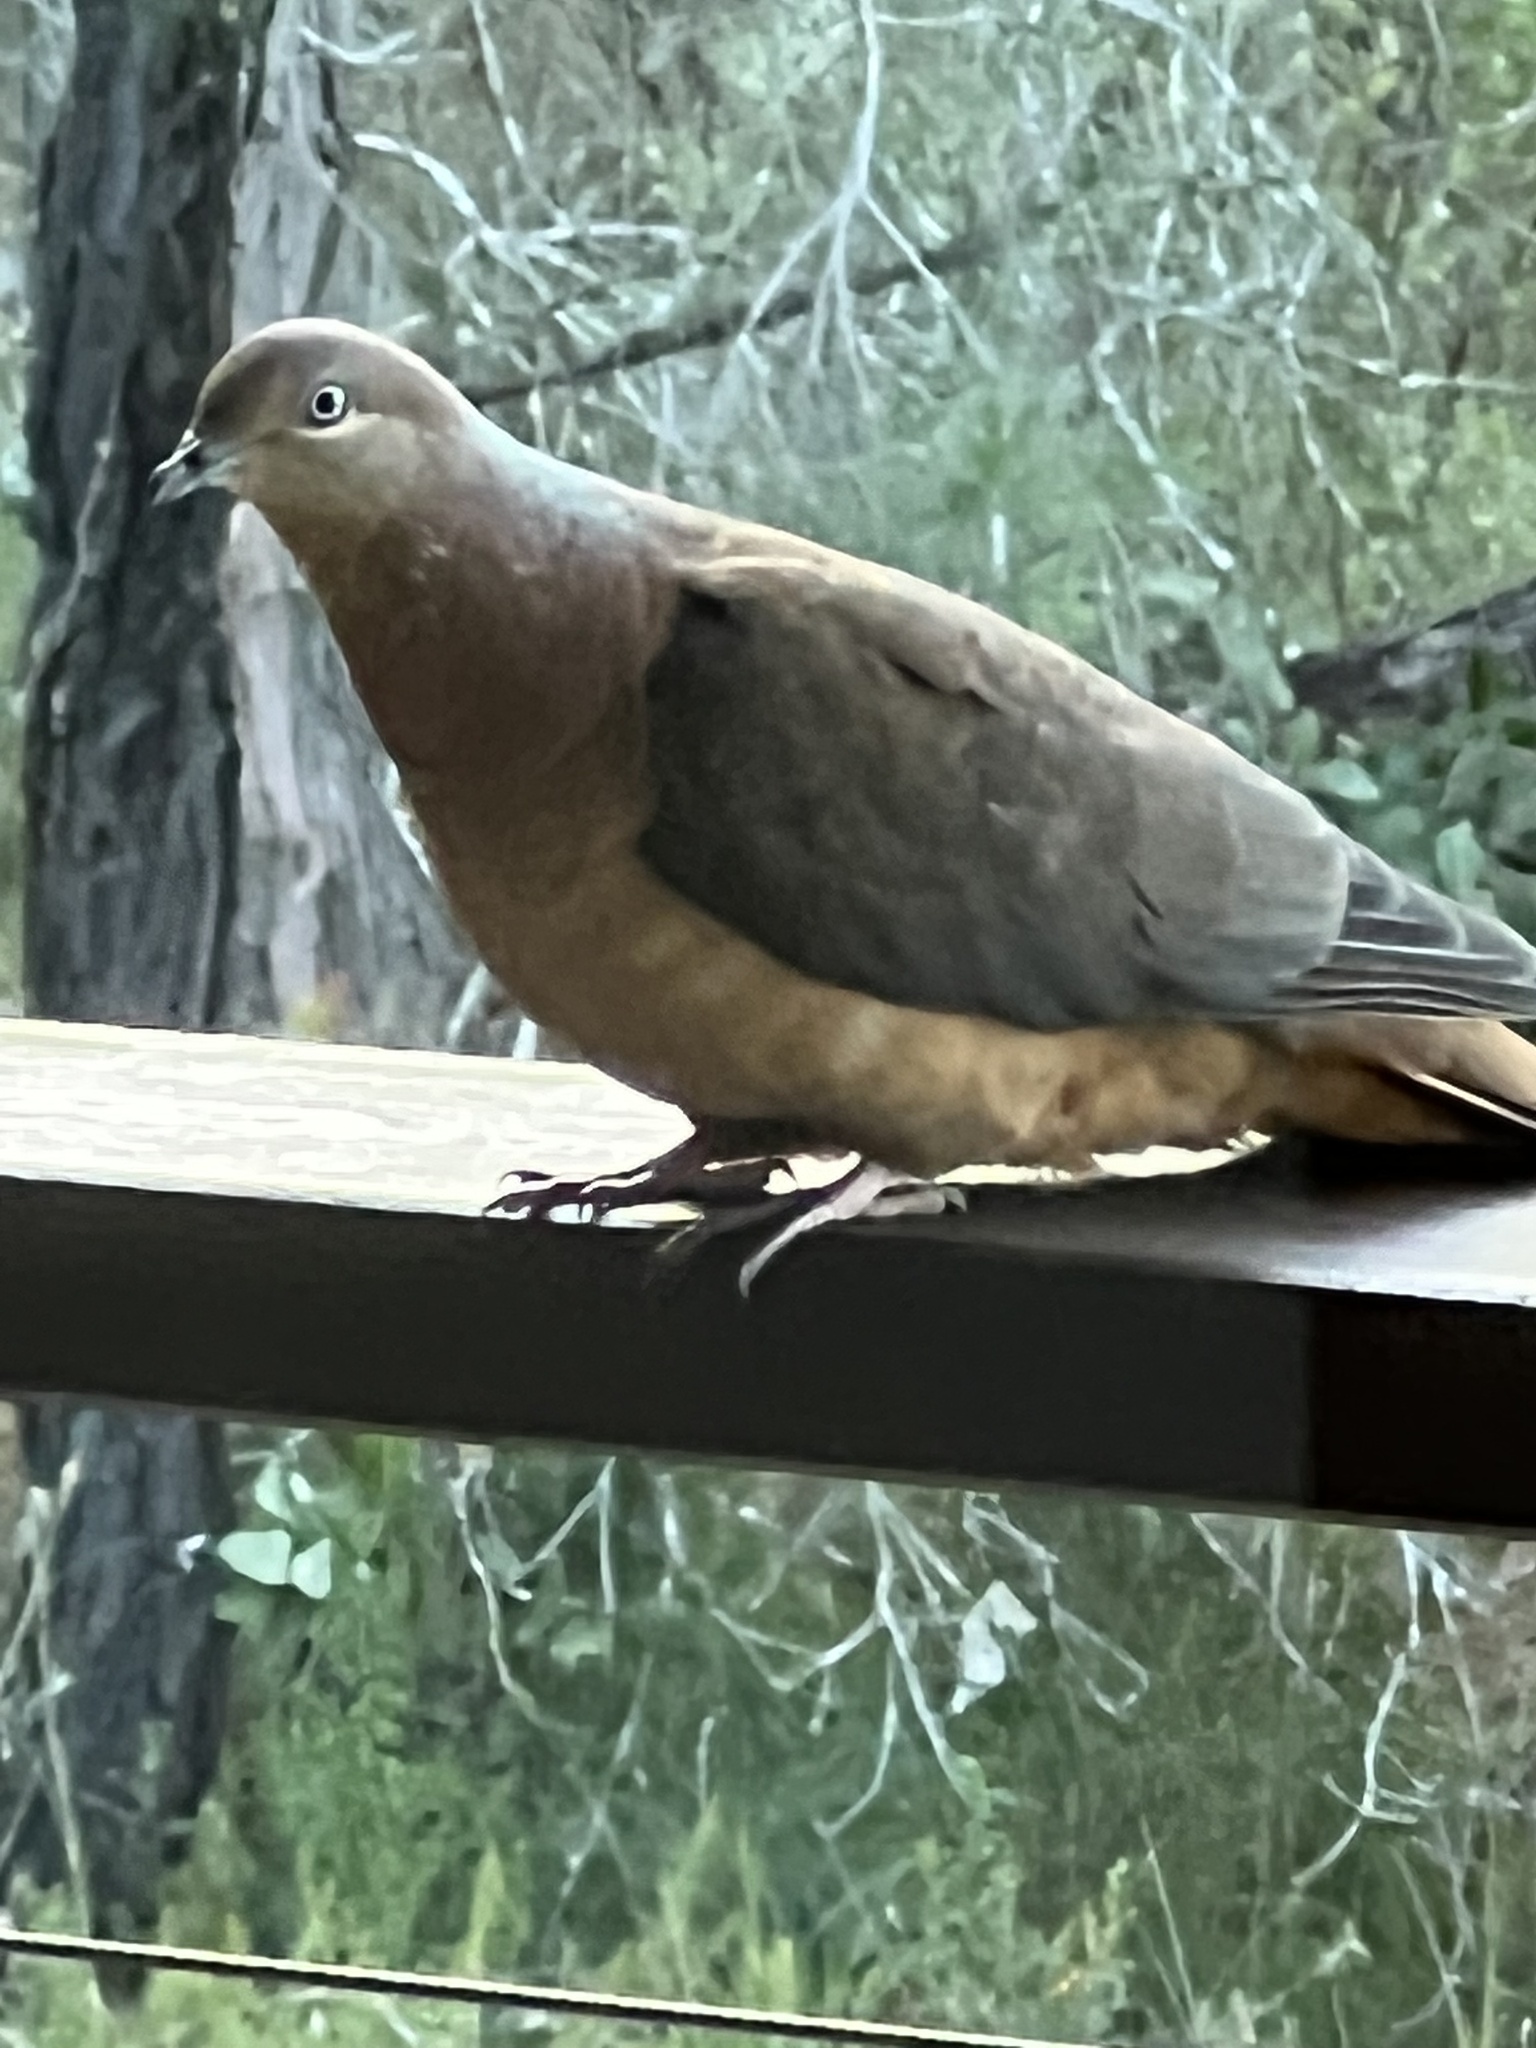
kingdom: Animalia
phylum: Chordata
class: Aves
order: Columbiformes
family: Columbidae
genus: Macropygia
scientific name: Macropygia phasianella
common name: Brown cuckoo-dove
